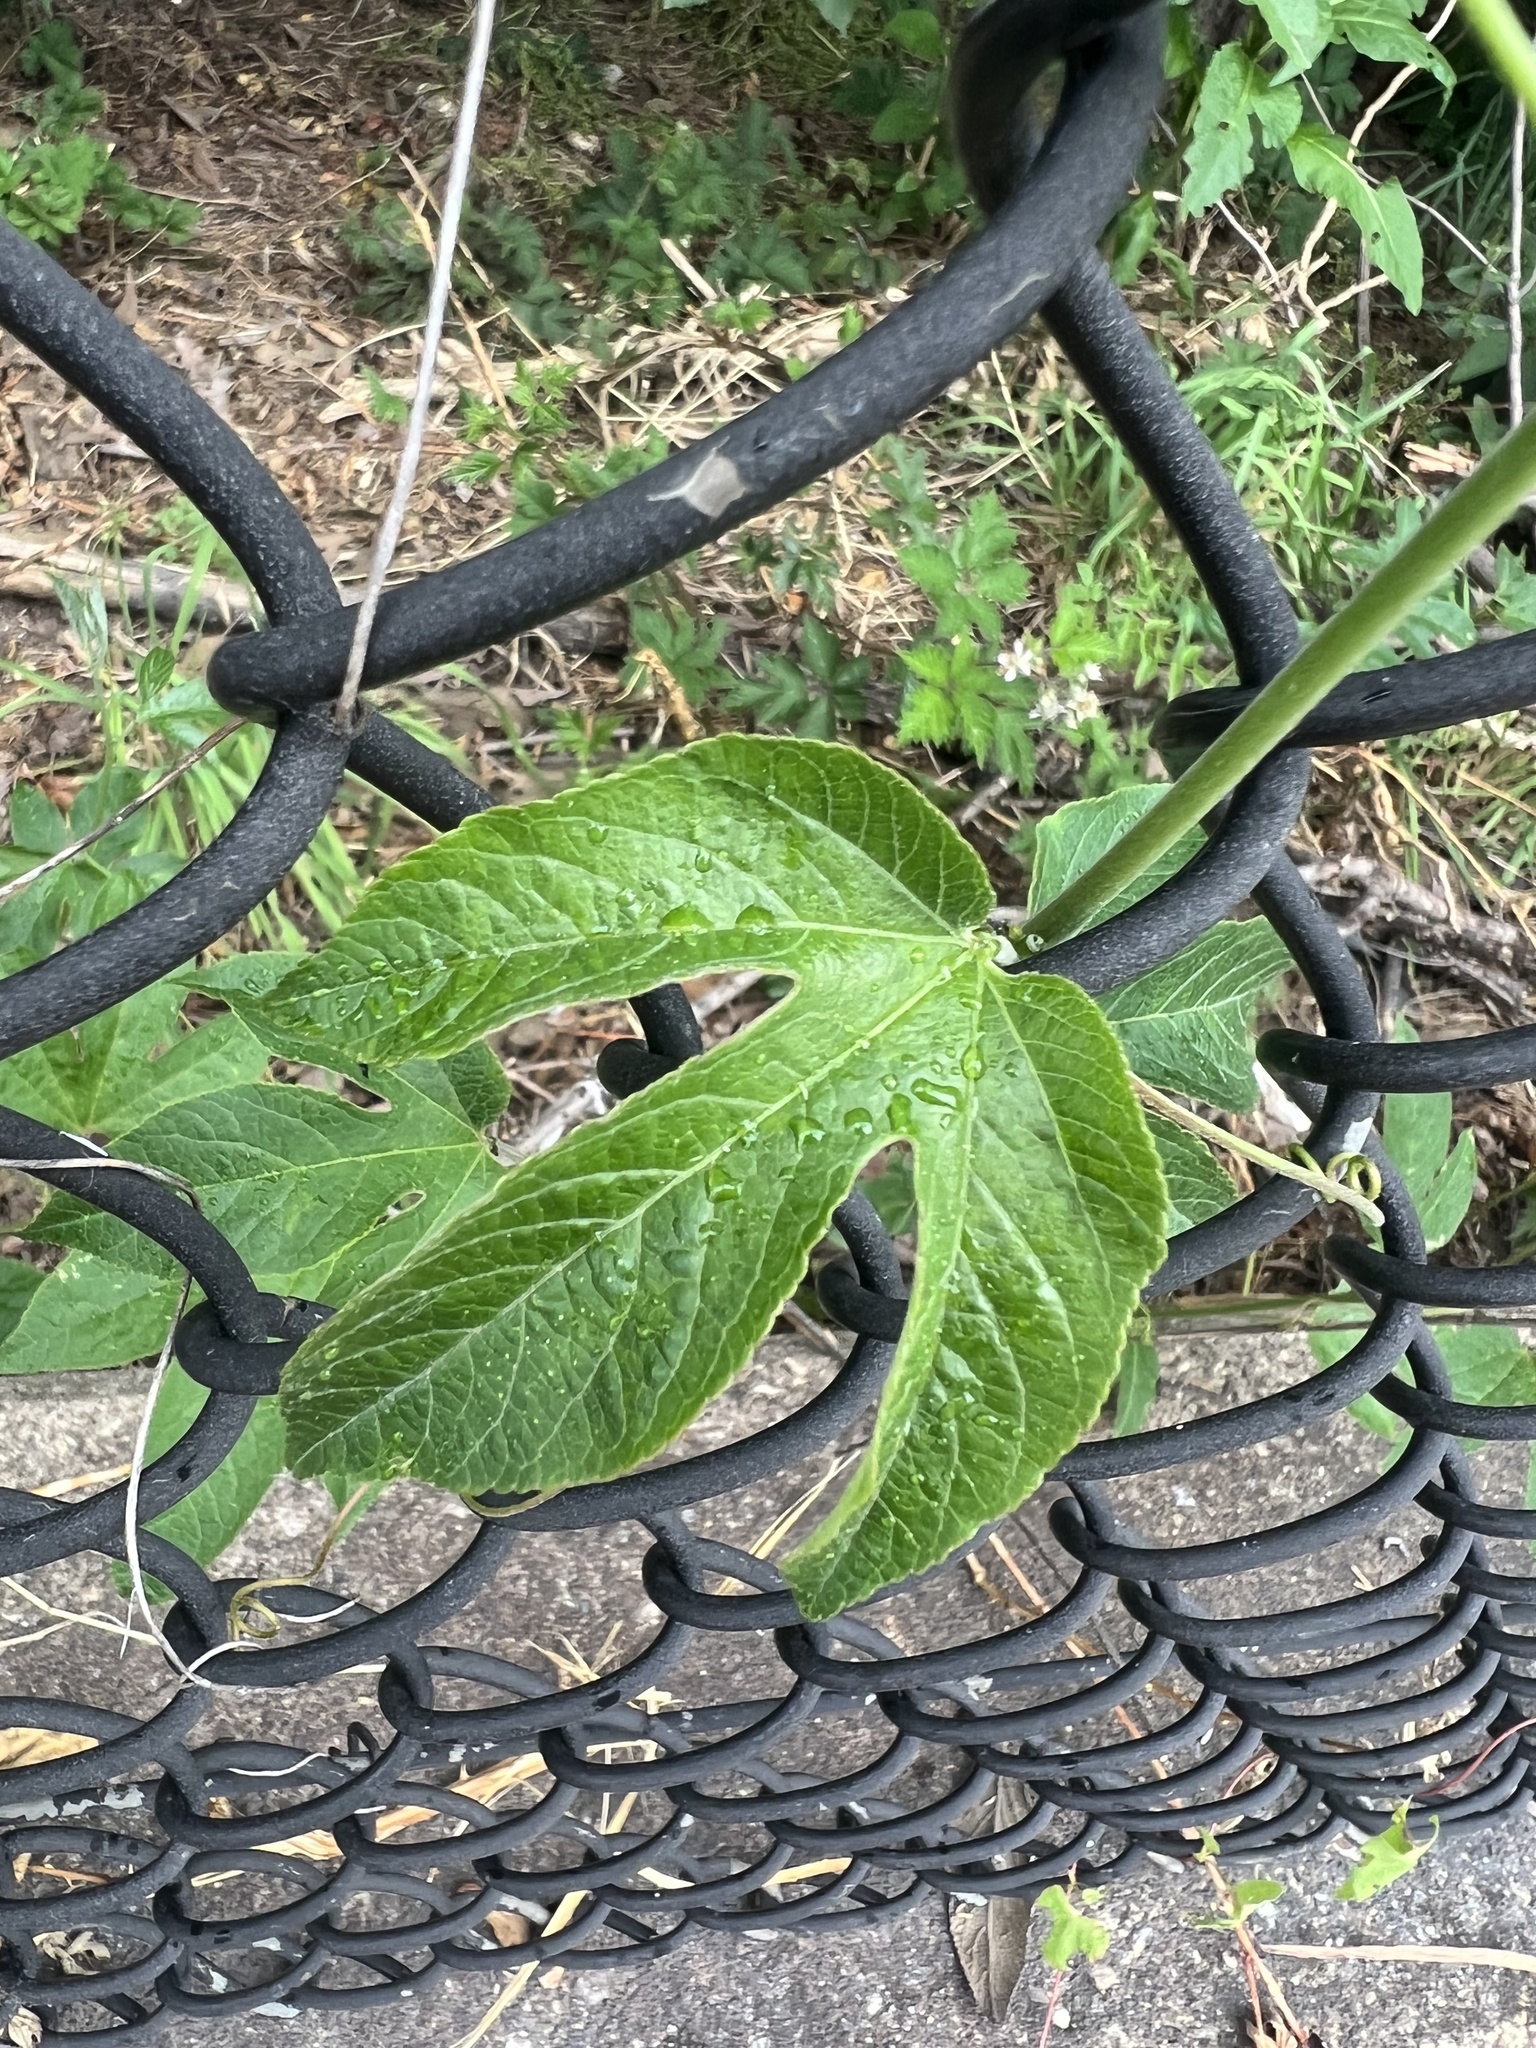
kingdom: Plantae
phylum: Tracheophyta
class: Magnoliopsida
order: Malpighiales
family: Passifloraceae
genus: Passiflora
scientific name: Passiflora incarnata
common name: Apricot-vine
